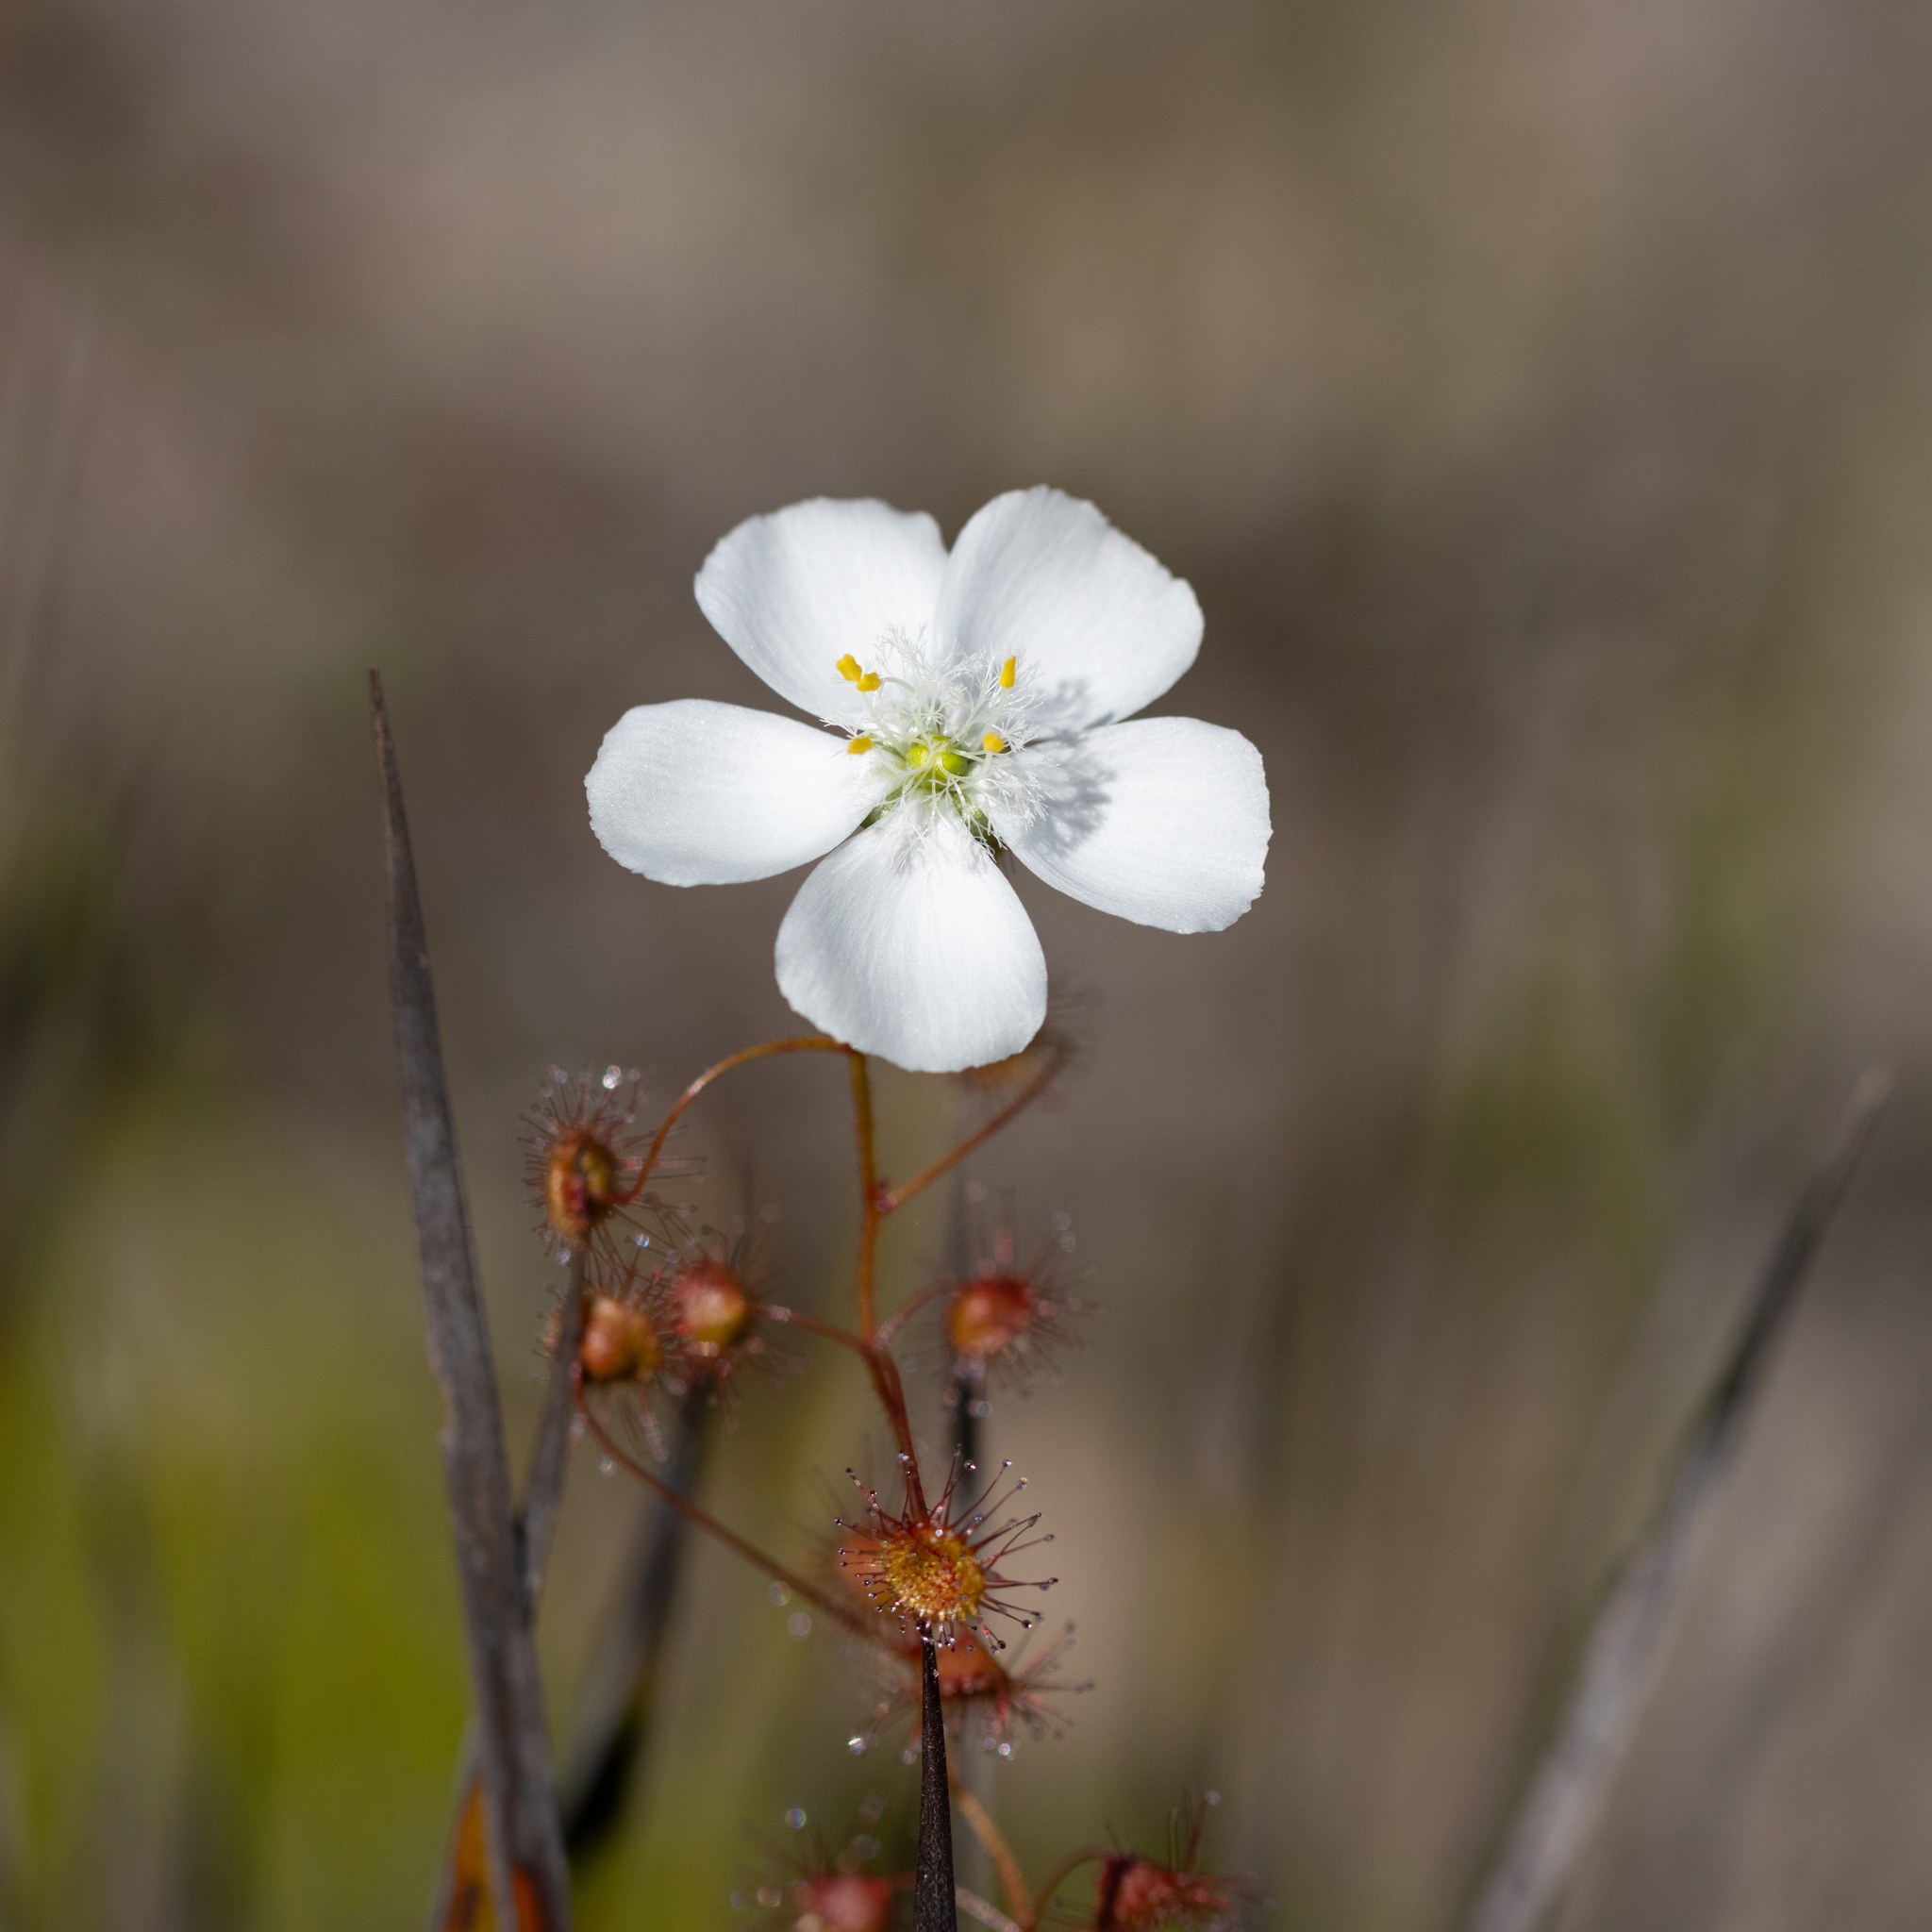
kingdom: Plantae
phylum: Tracheophyta
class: Magnoliopsida
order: Caryophyllales
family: Droseraceae
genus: Drosera
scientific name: Drosera planchonii
